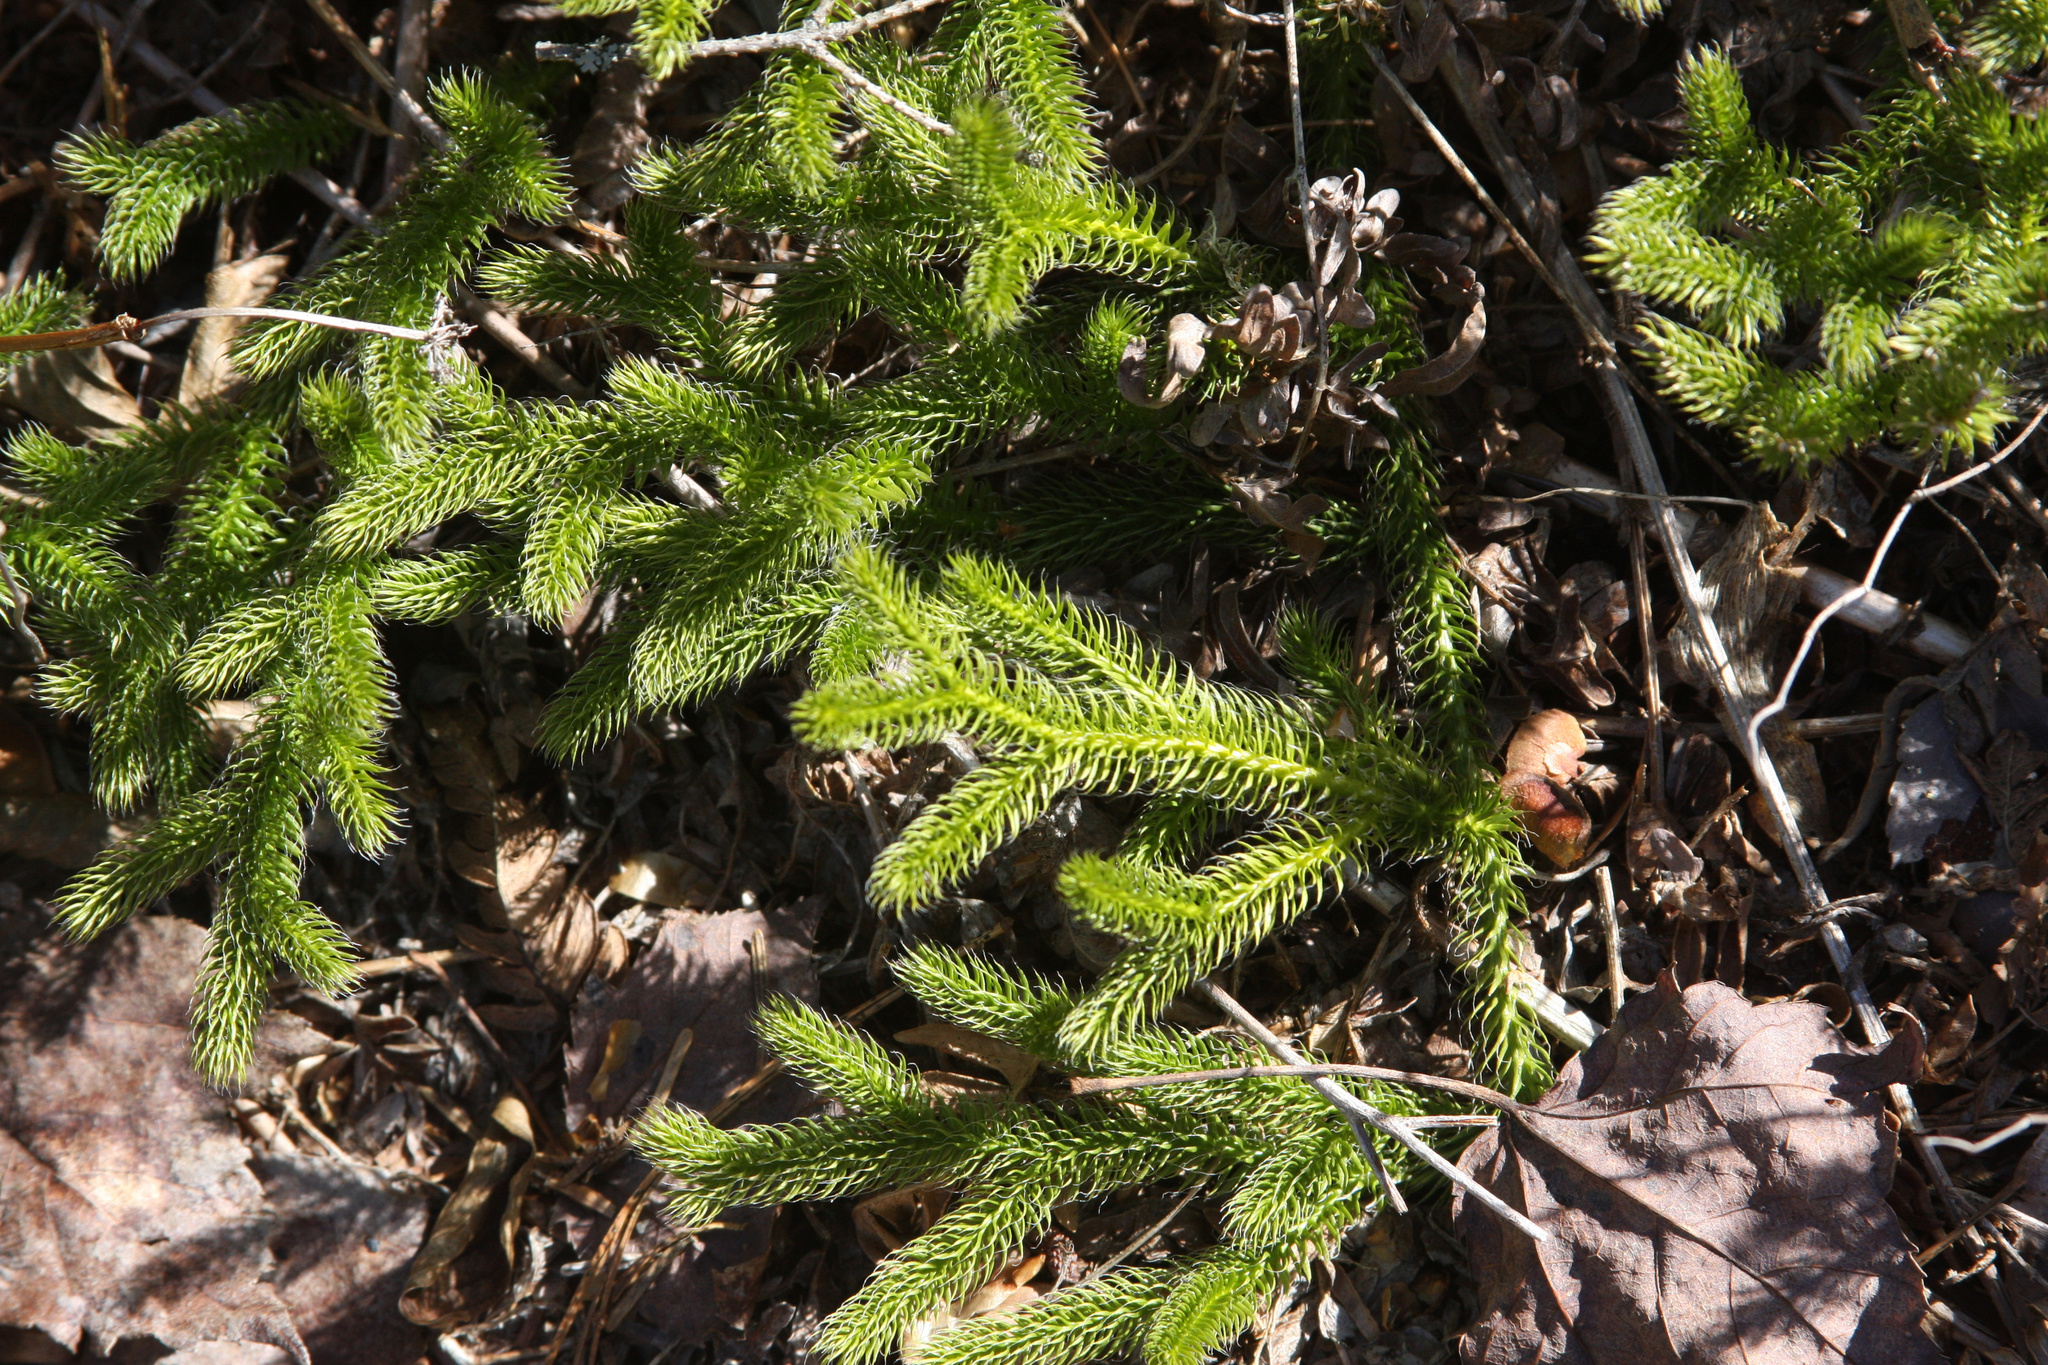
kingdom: Plantae
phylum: Tracheophyta
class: Lycopodiopsida
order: Lycopodiales
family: Lycopodiaceae
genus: Lycopodium
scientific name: Lycopodium clavatum
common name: Stag's-horn clubmoss
